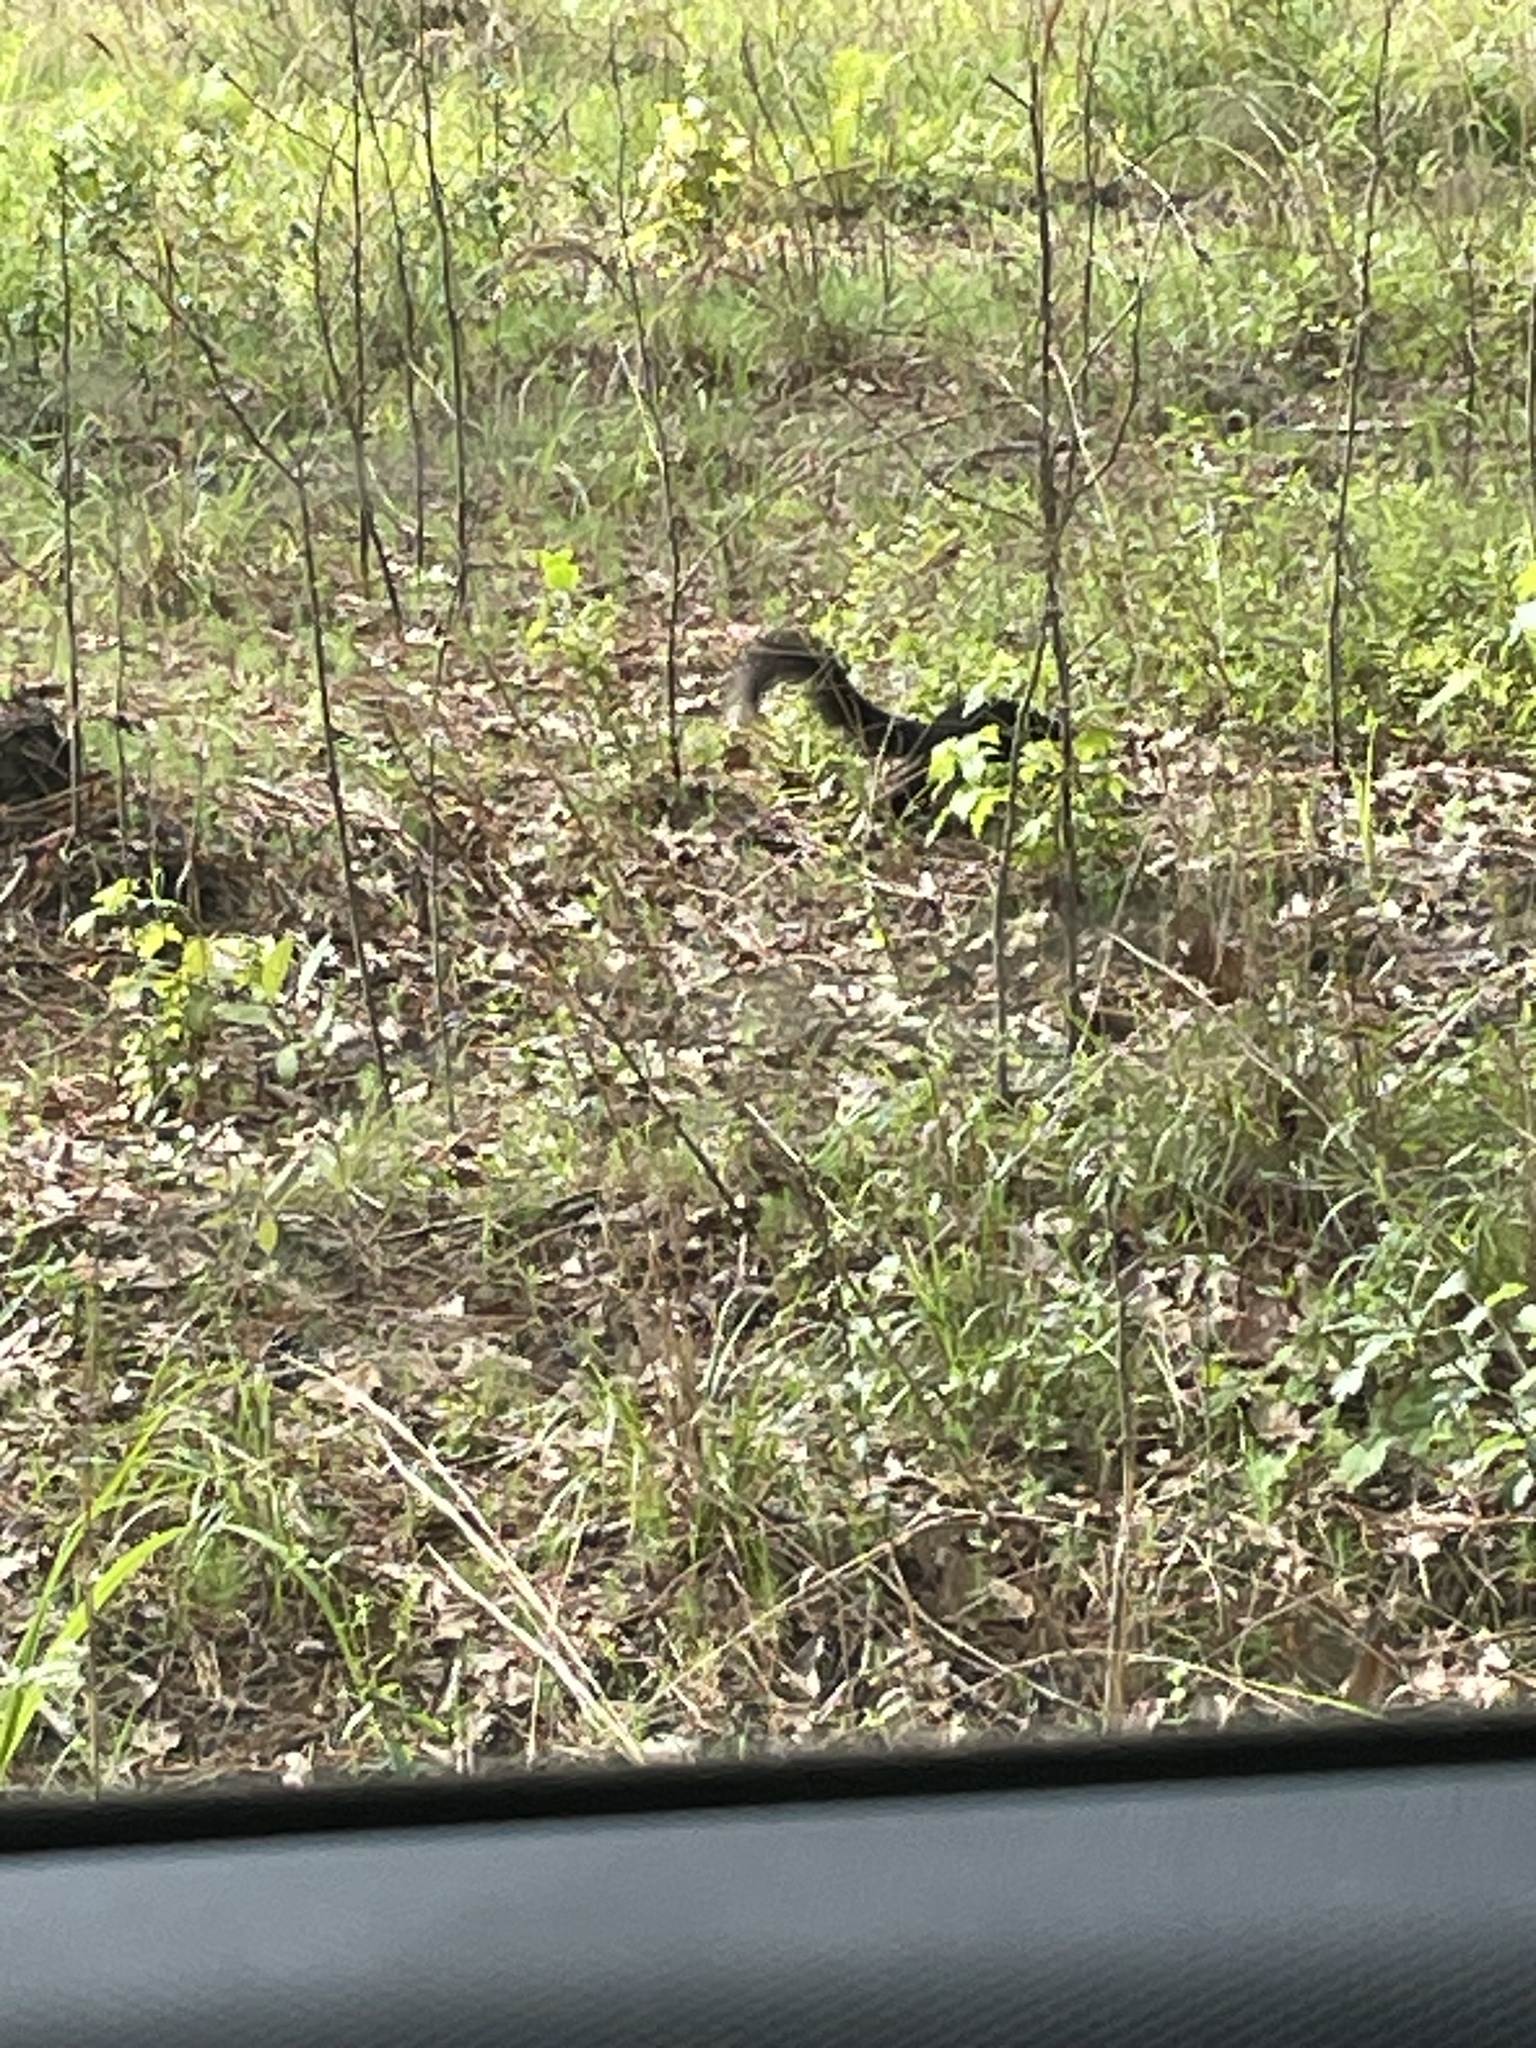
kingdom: Animalia
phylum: Chordata
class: Mammalia
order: Rodentia
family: Sciuridae
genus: Sciurus
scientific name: Sciurus niger
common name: Fox squirrel
